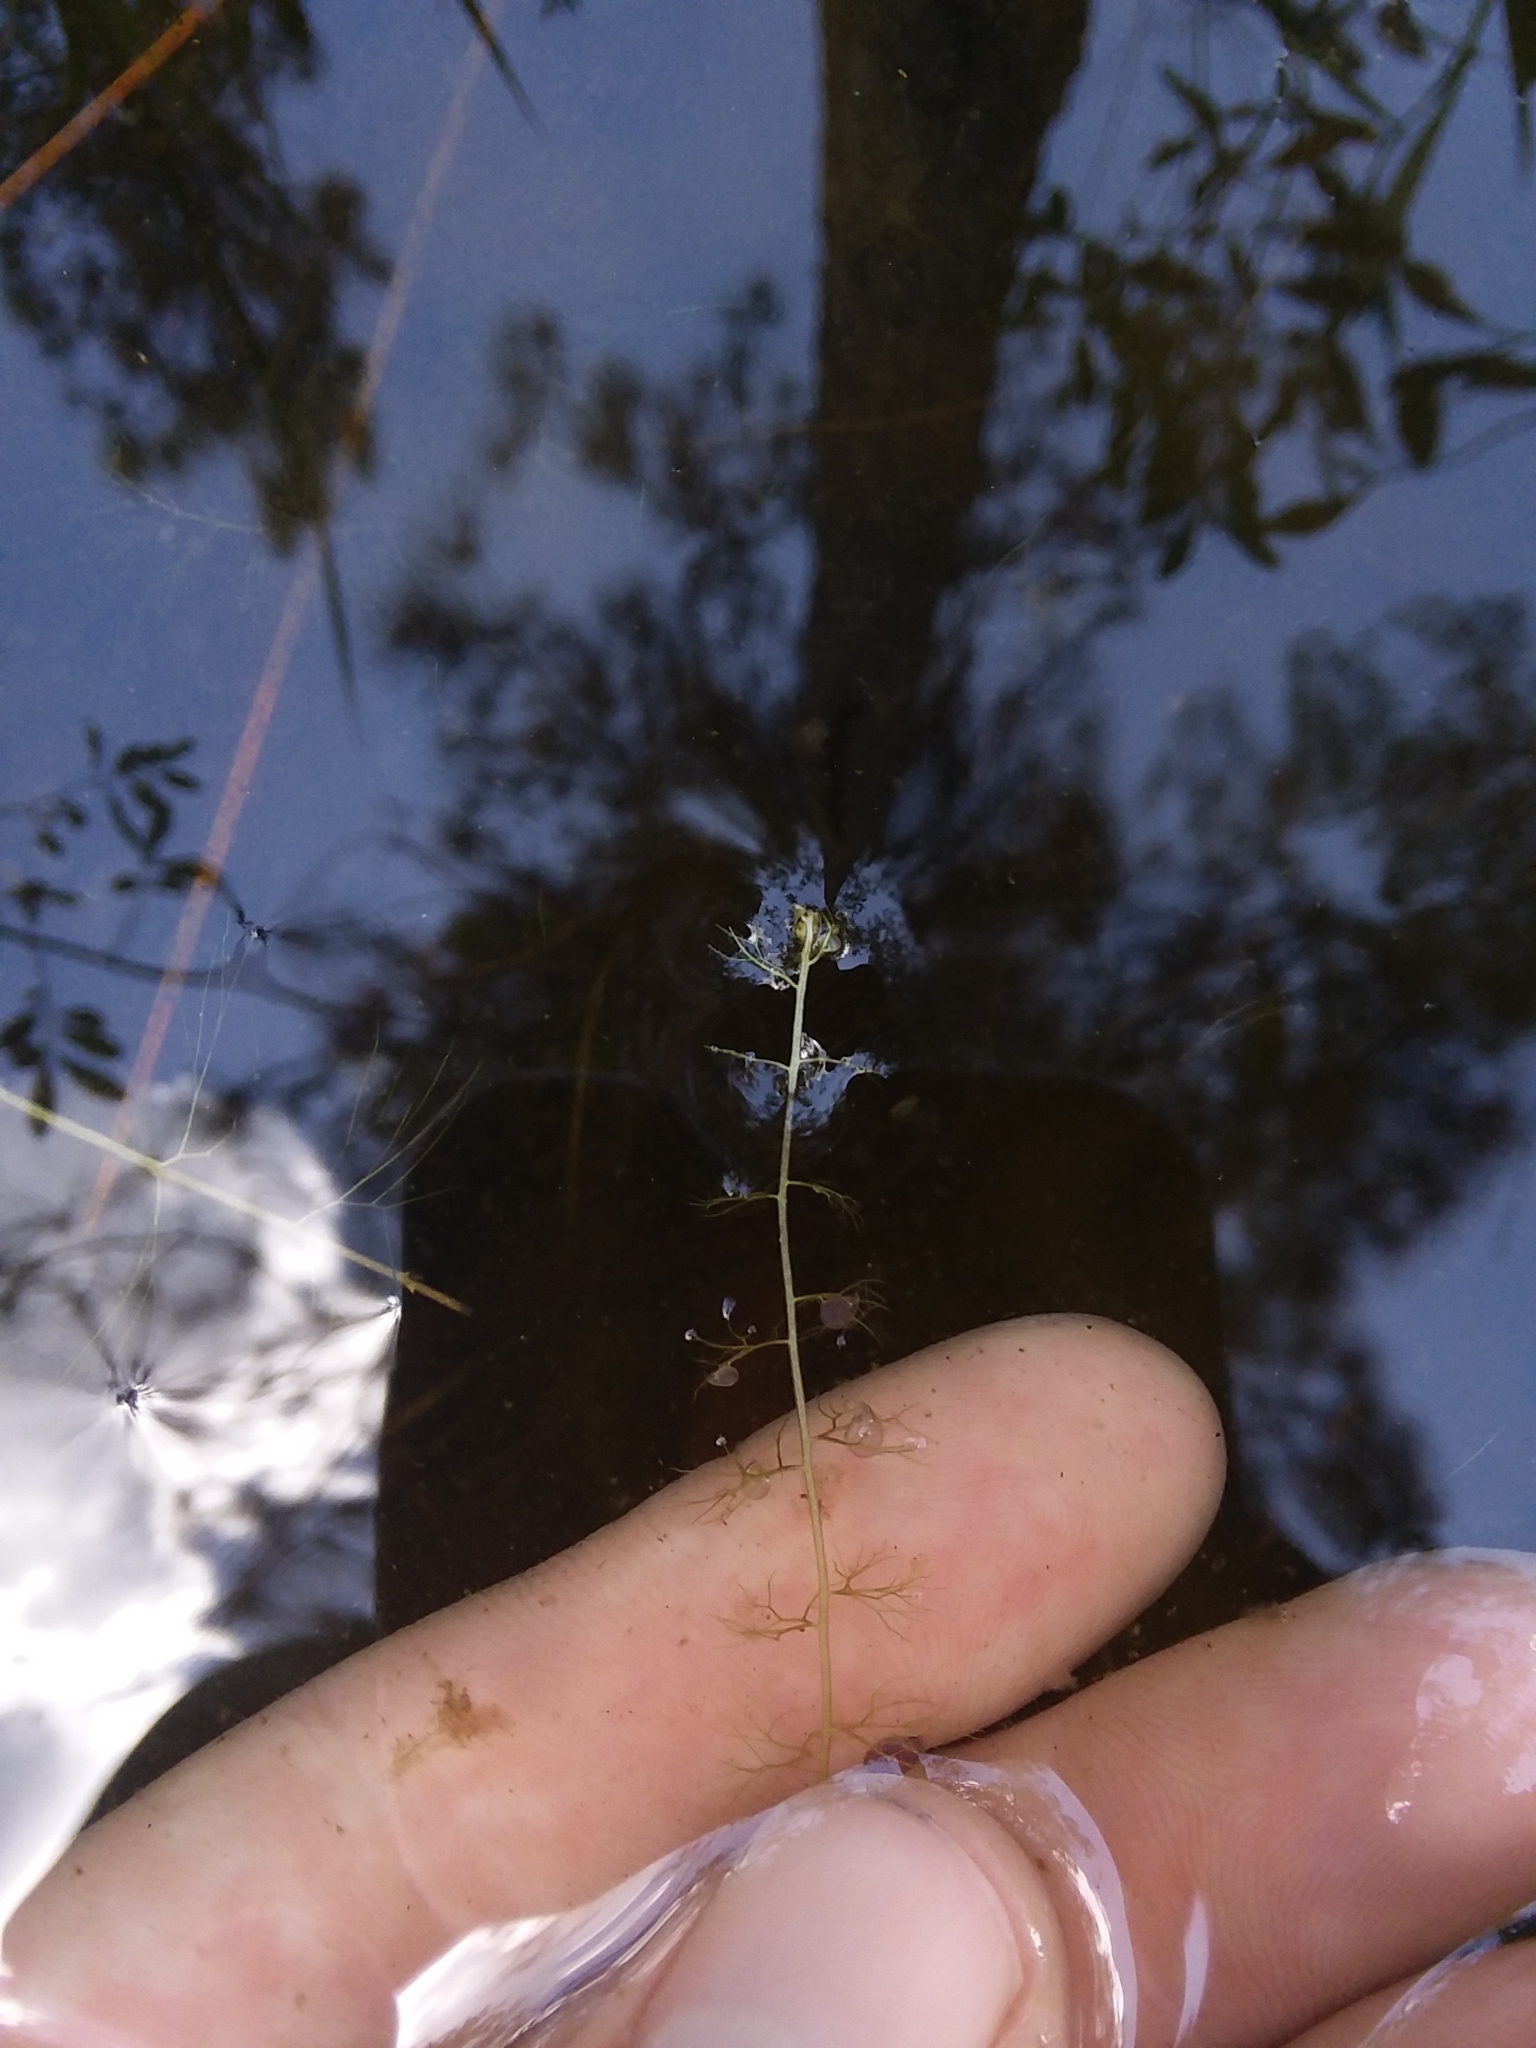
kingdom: Plantae
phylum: Tracheophyta
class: Magnoliopsida
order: Lamiales
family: Lentibulariaceae
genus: Utricularia
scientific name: Utricularia gibba
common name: Humped bladderwort
